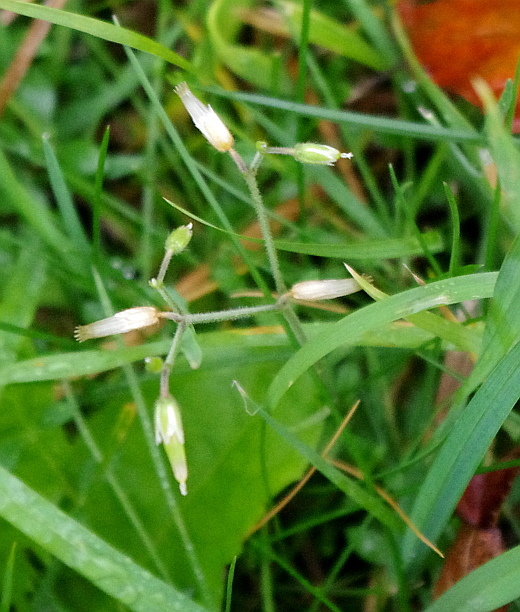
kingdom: Plantae
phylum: Tracheophyta
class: Magnoliopsida
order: Caryophyllales
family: Caryophyllaceae
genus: Cerastium
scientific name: Cerastium holosteoides
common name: Big chickweed
